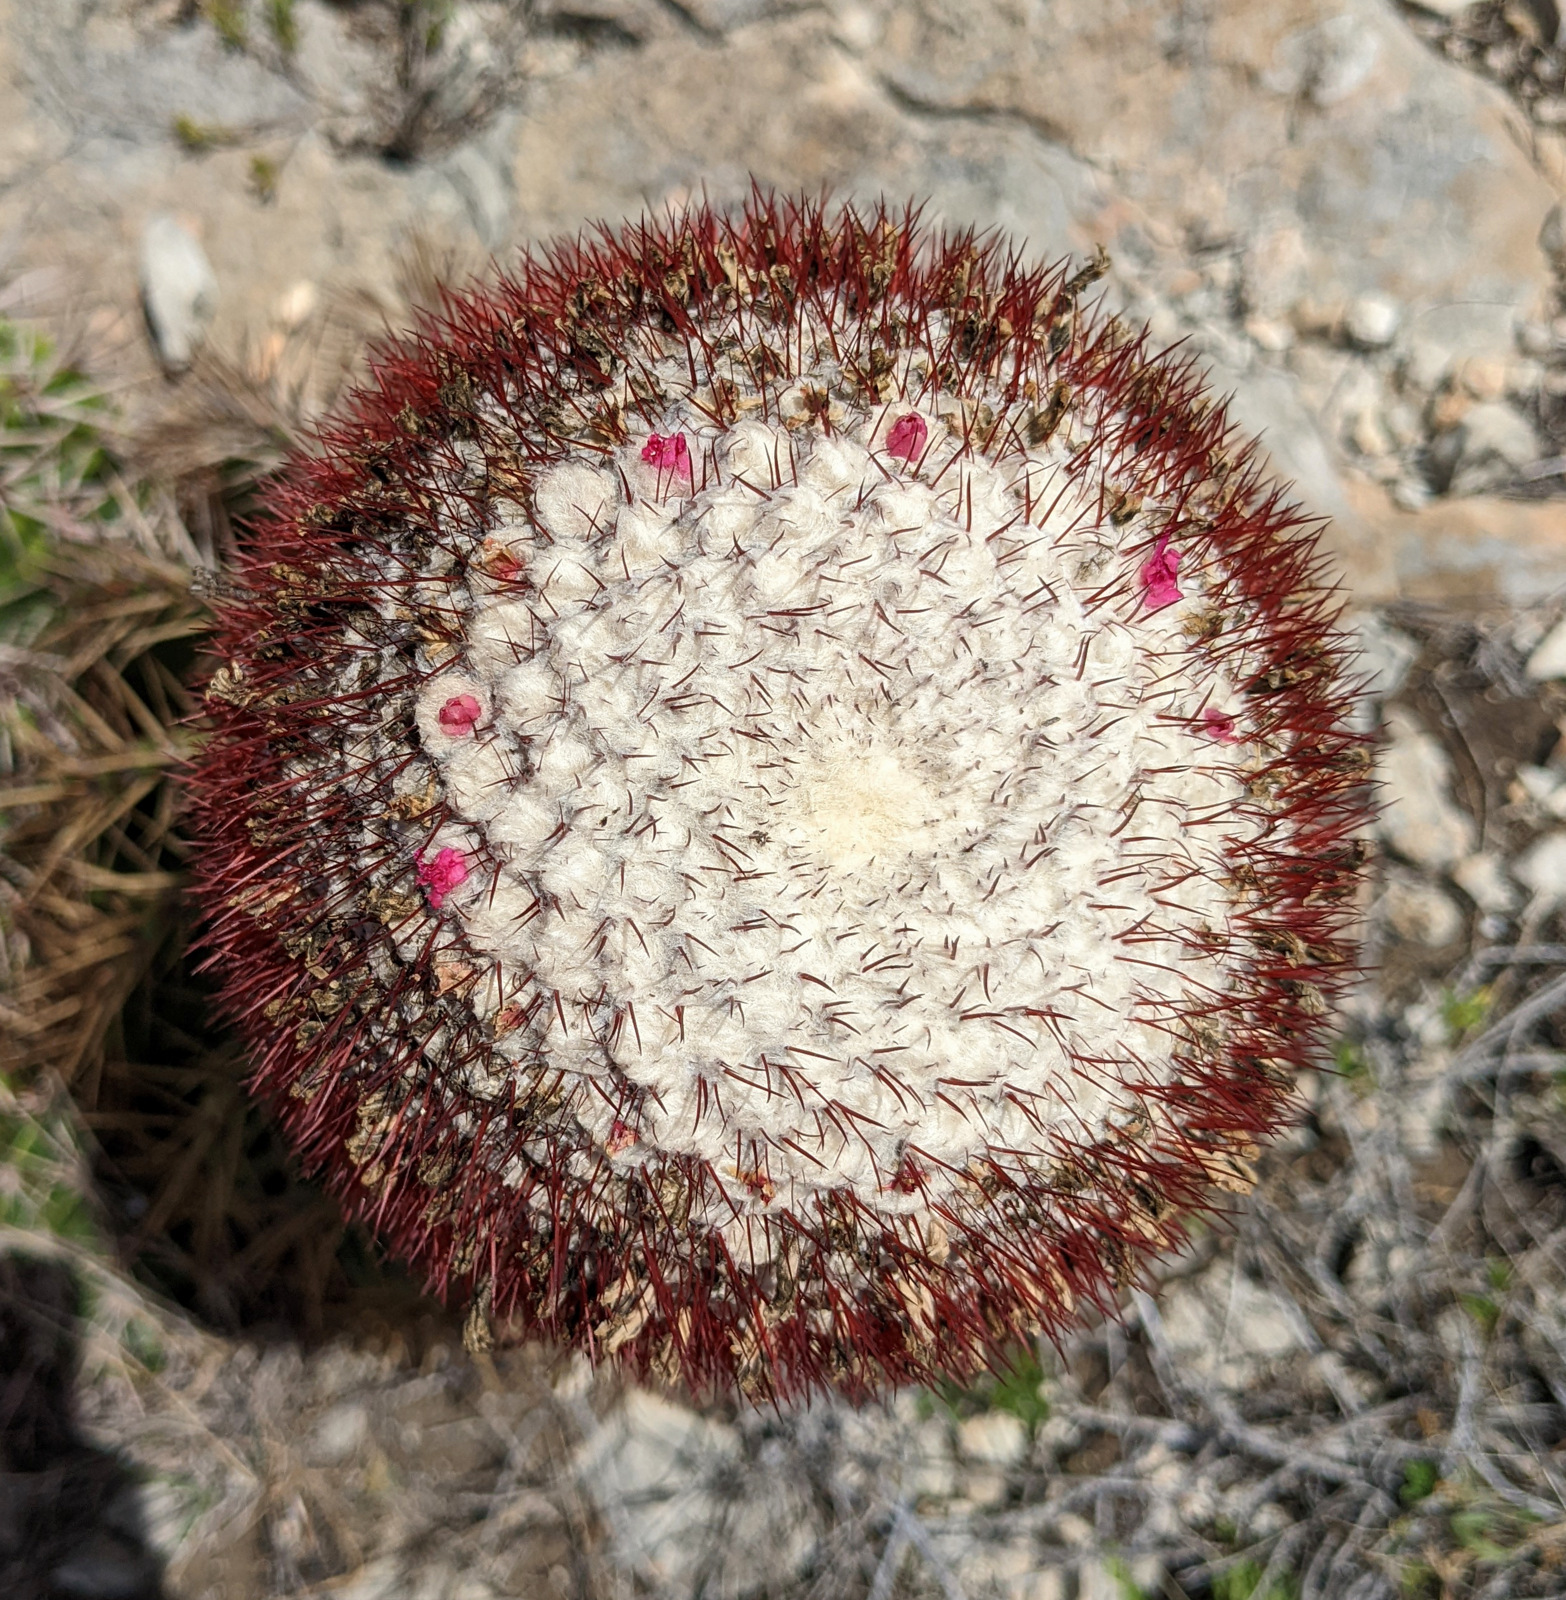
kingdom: Plantae
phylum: Tracheophyta
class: Magnoliopsida
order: Caryophyllales
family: Cactaceae
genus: Melocactus
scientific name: Melocactus intortus
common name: Barrel cactus
